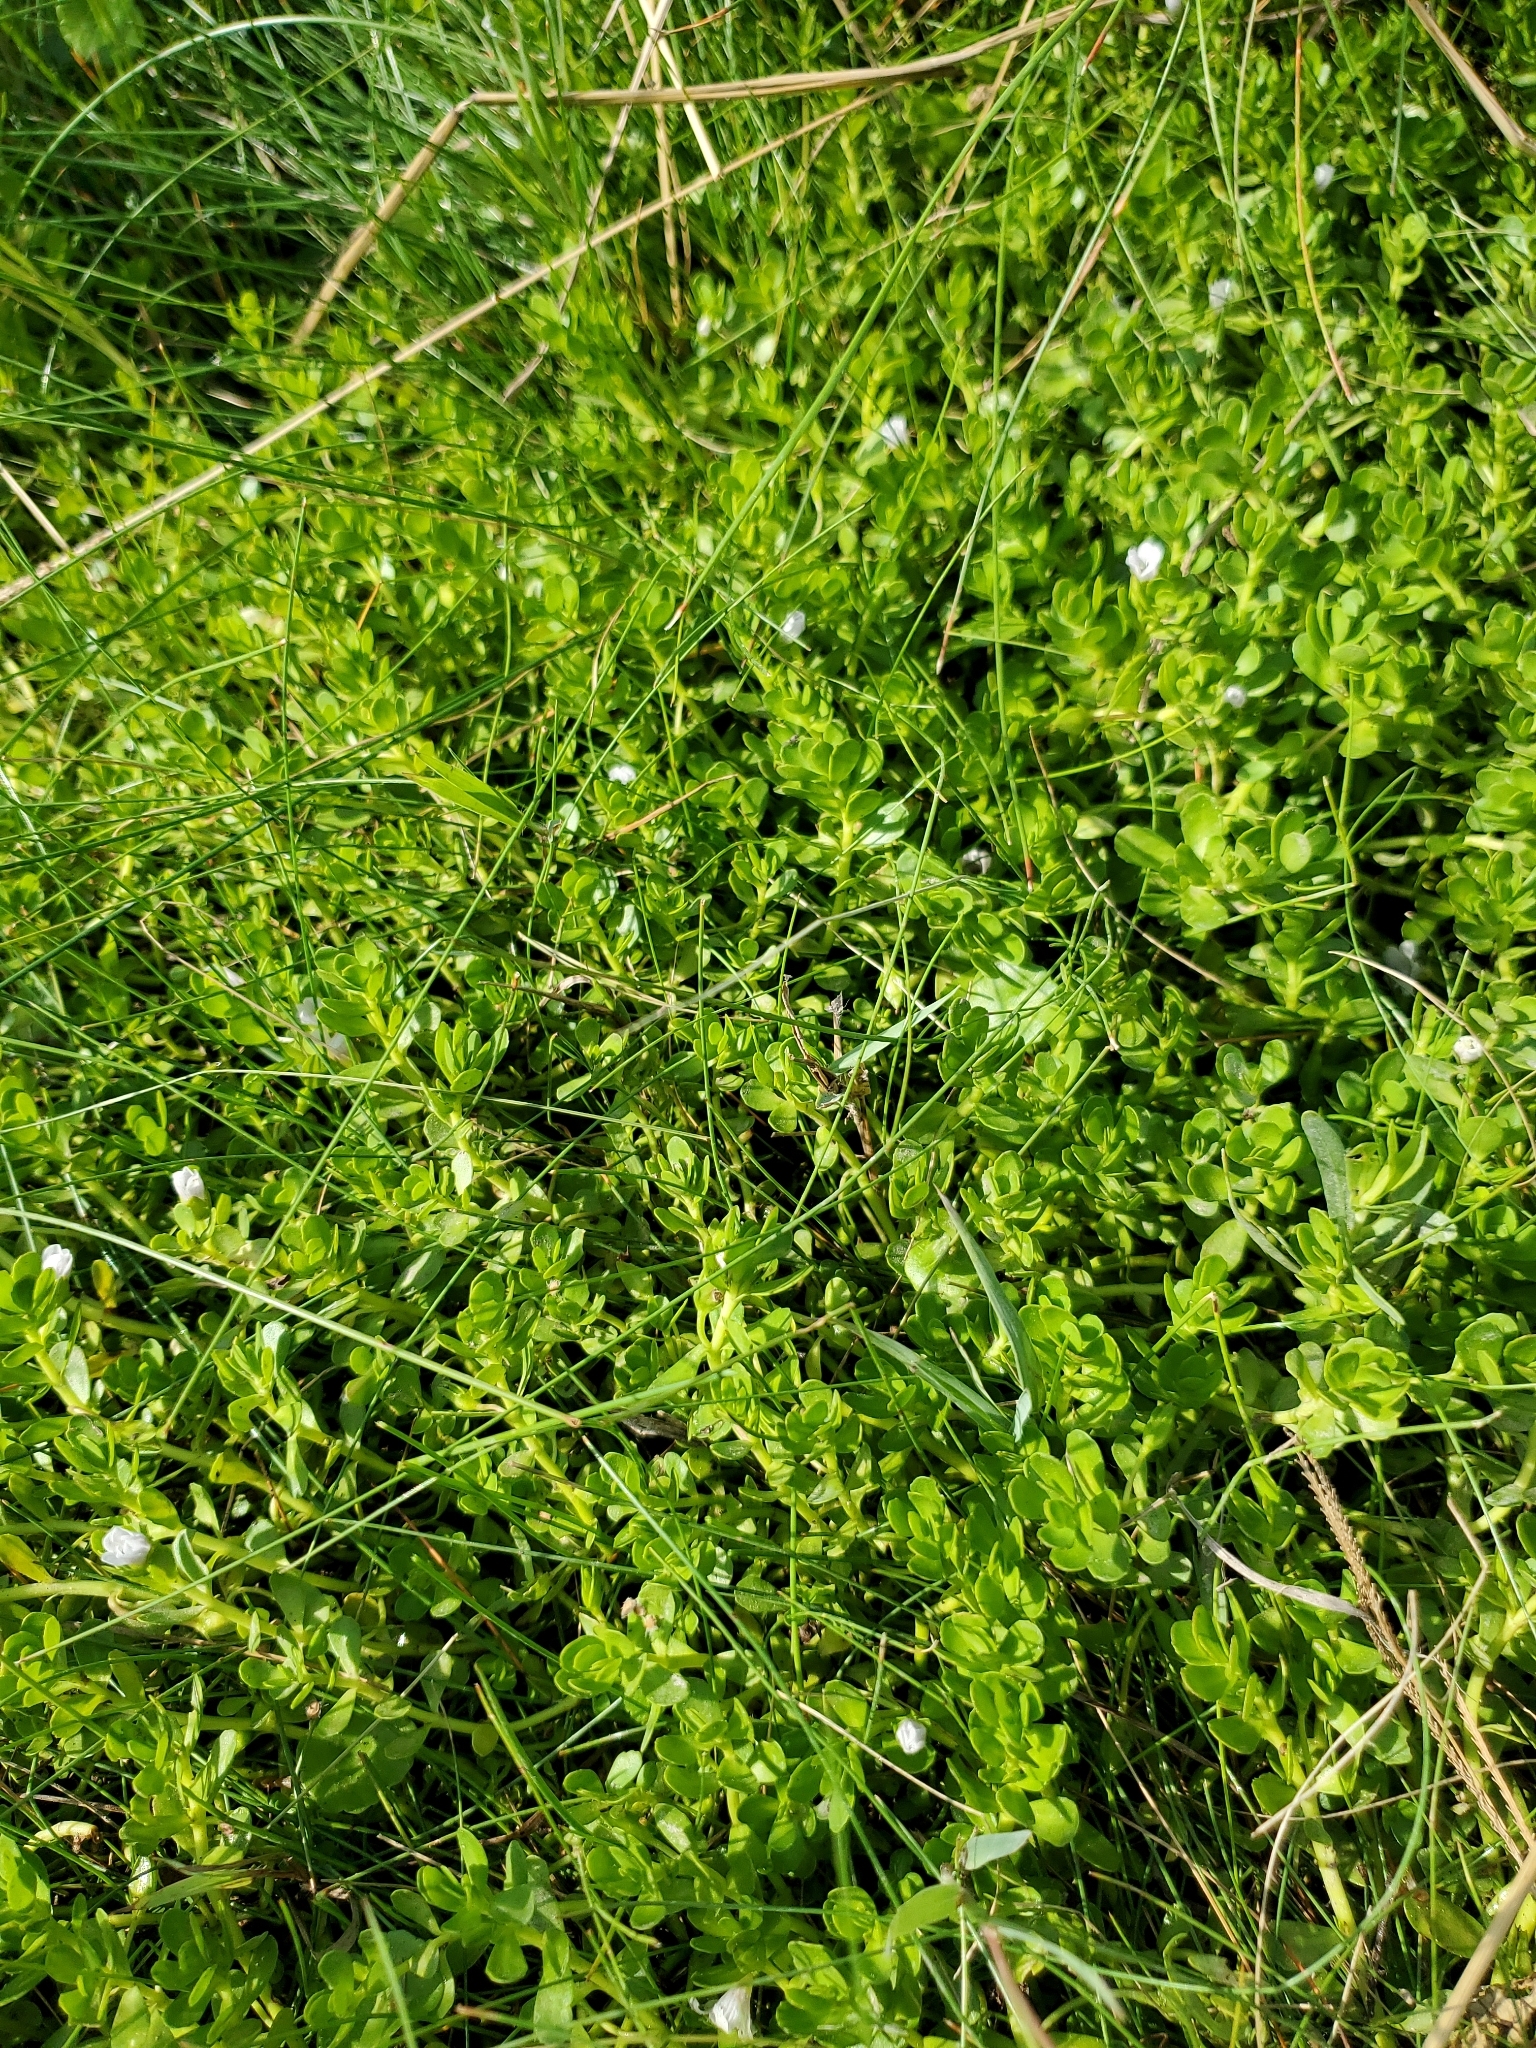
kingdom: Plantae
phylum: Tracheophyta
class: Magnoliopsida
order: Lamiales
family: Plantaginaceae
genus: Bacopa
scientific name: Bacopa monnieri
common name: Indian-pennywort
